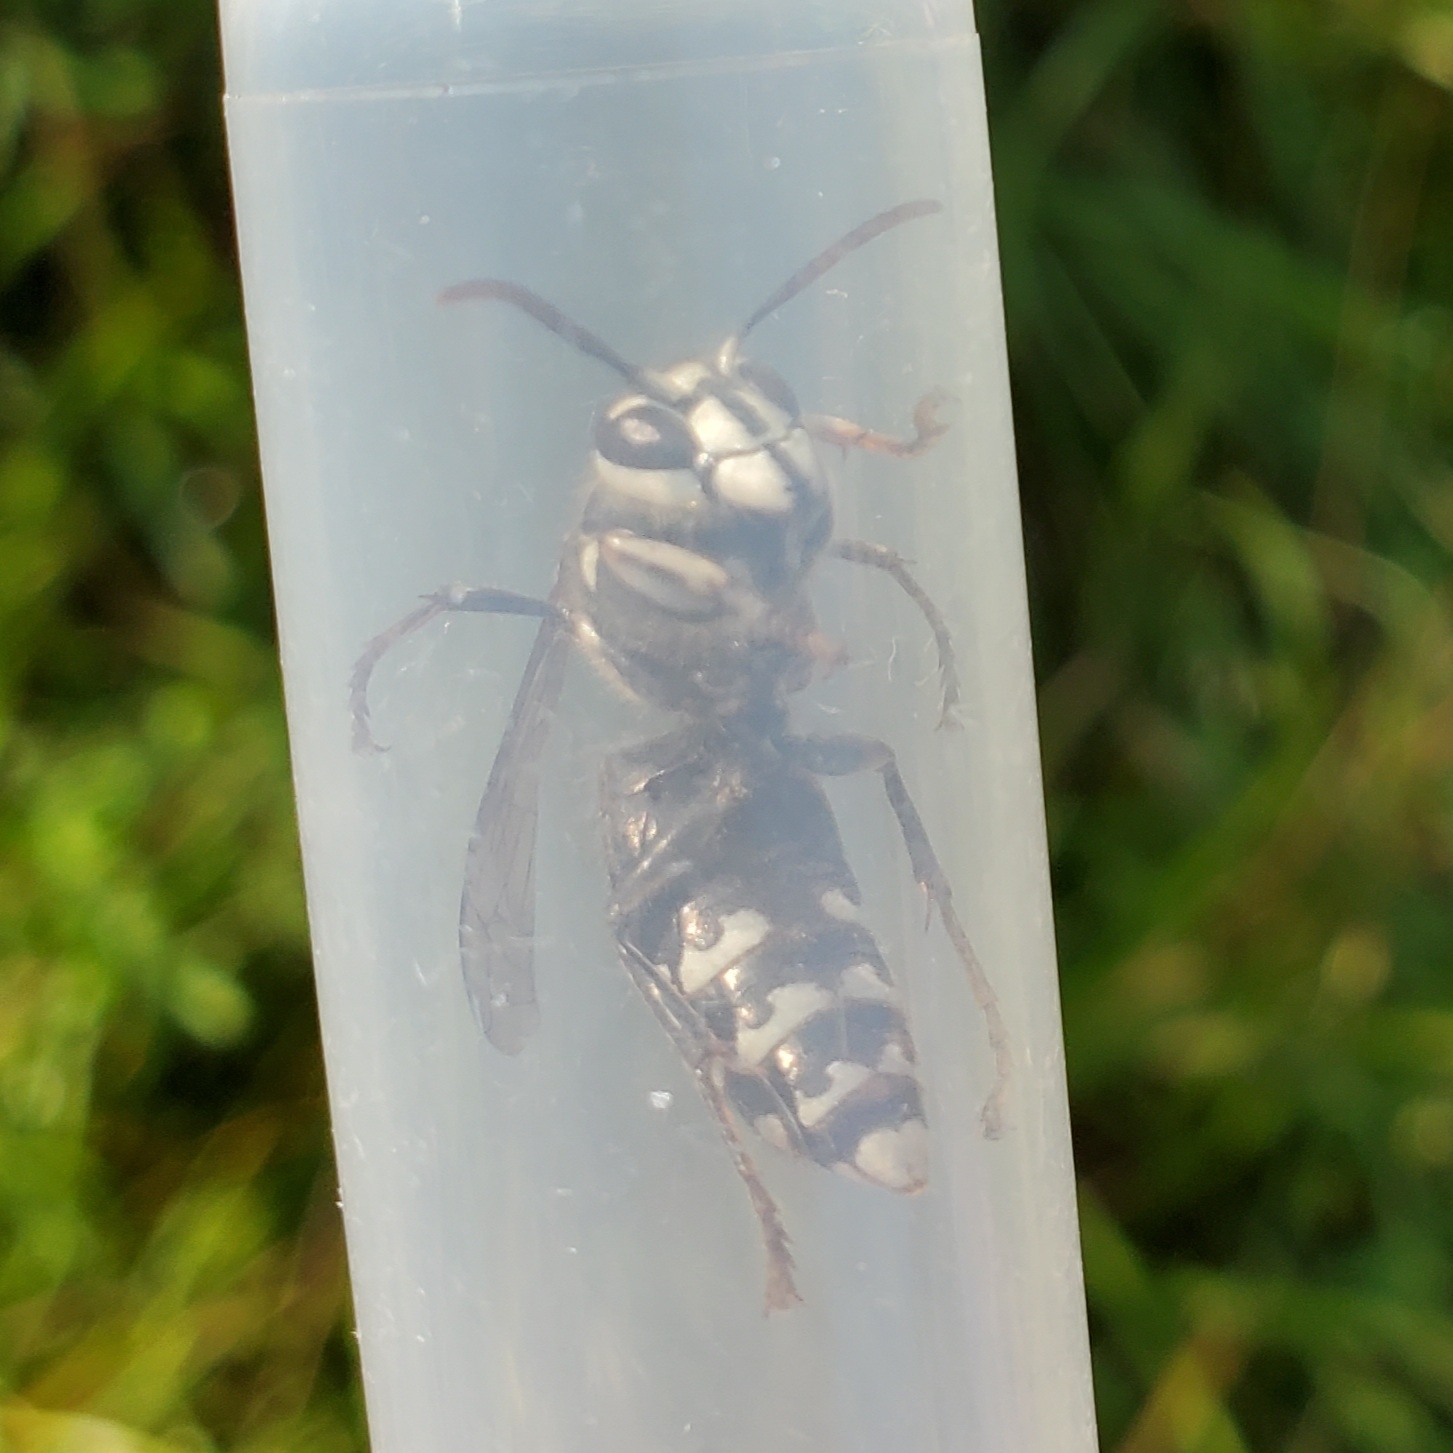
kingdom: Animalia
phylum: Arthropoda
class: Insecta
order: Hymenoptera
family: Vespidae
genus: Dolichovespula
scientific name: Dolichovespula maculata
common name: Bald-faced hornet
